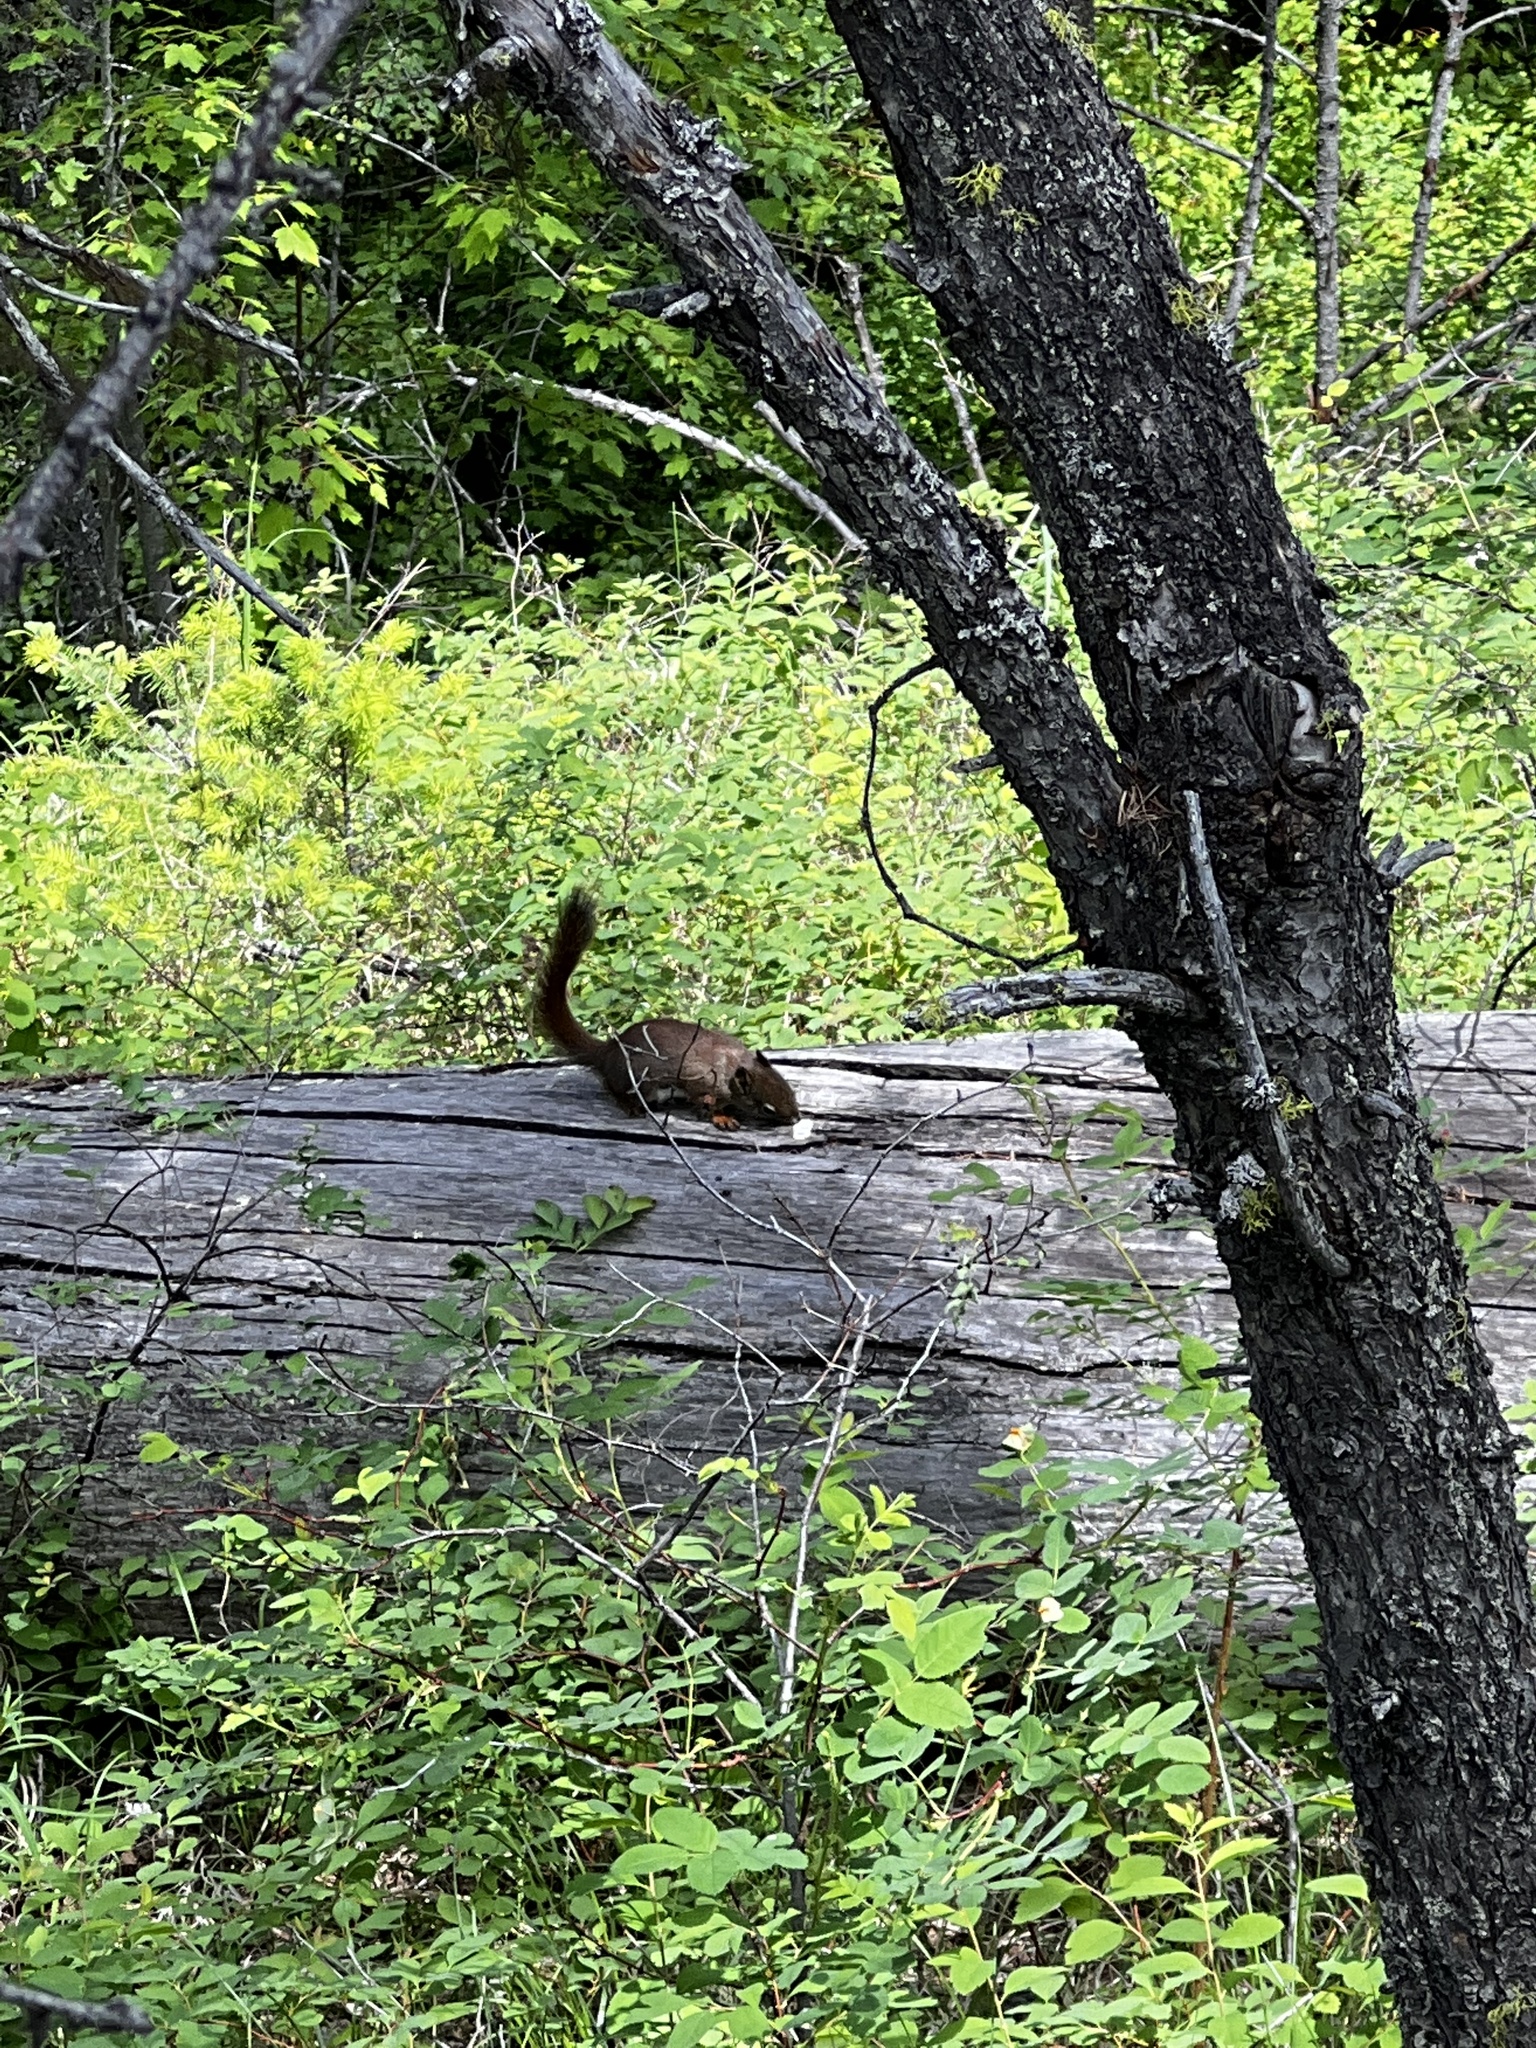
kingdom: Animalia
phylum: Chordata
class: Mammalia
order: Rodentia
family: Sciuridae
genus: Tamiasciurus
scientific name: Tamiasciurus hudsonicus
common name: Red squirrel
